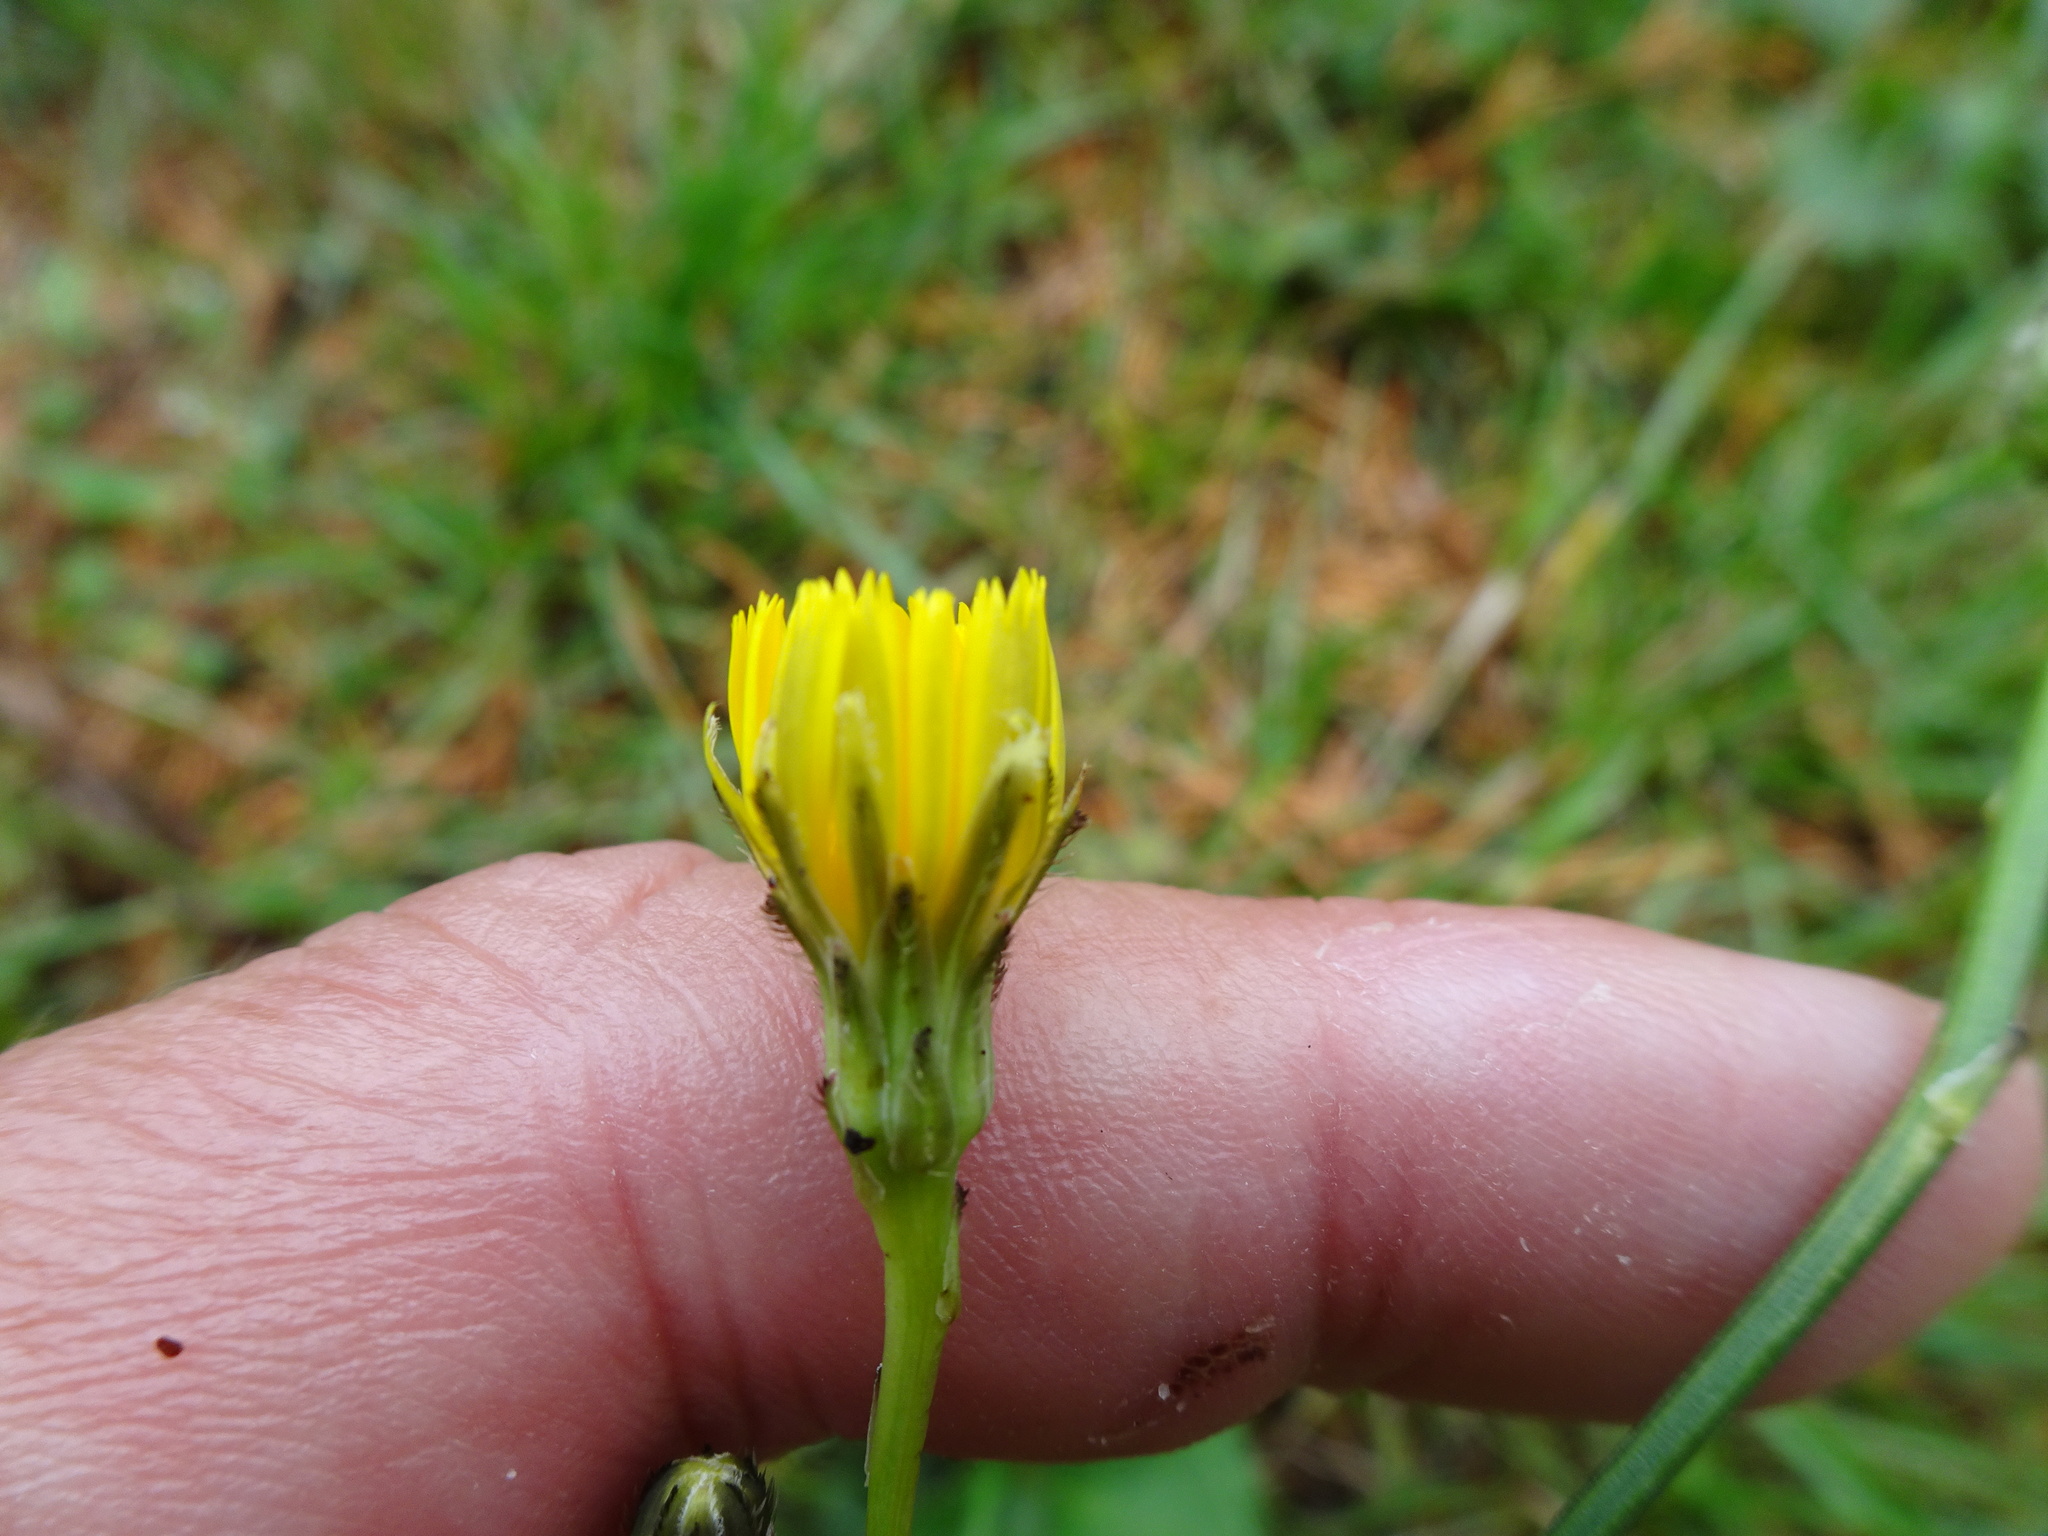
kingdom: Plantae
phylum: Tracheophyta
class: Magnoliopsida
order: Asterales
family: Asteraceae
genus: Hypochaeris
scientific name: Hypochaeris radicata
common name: Flatweed
